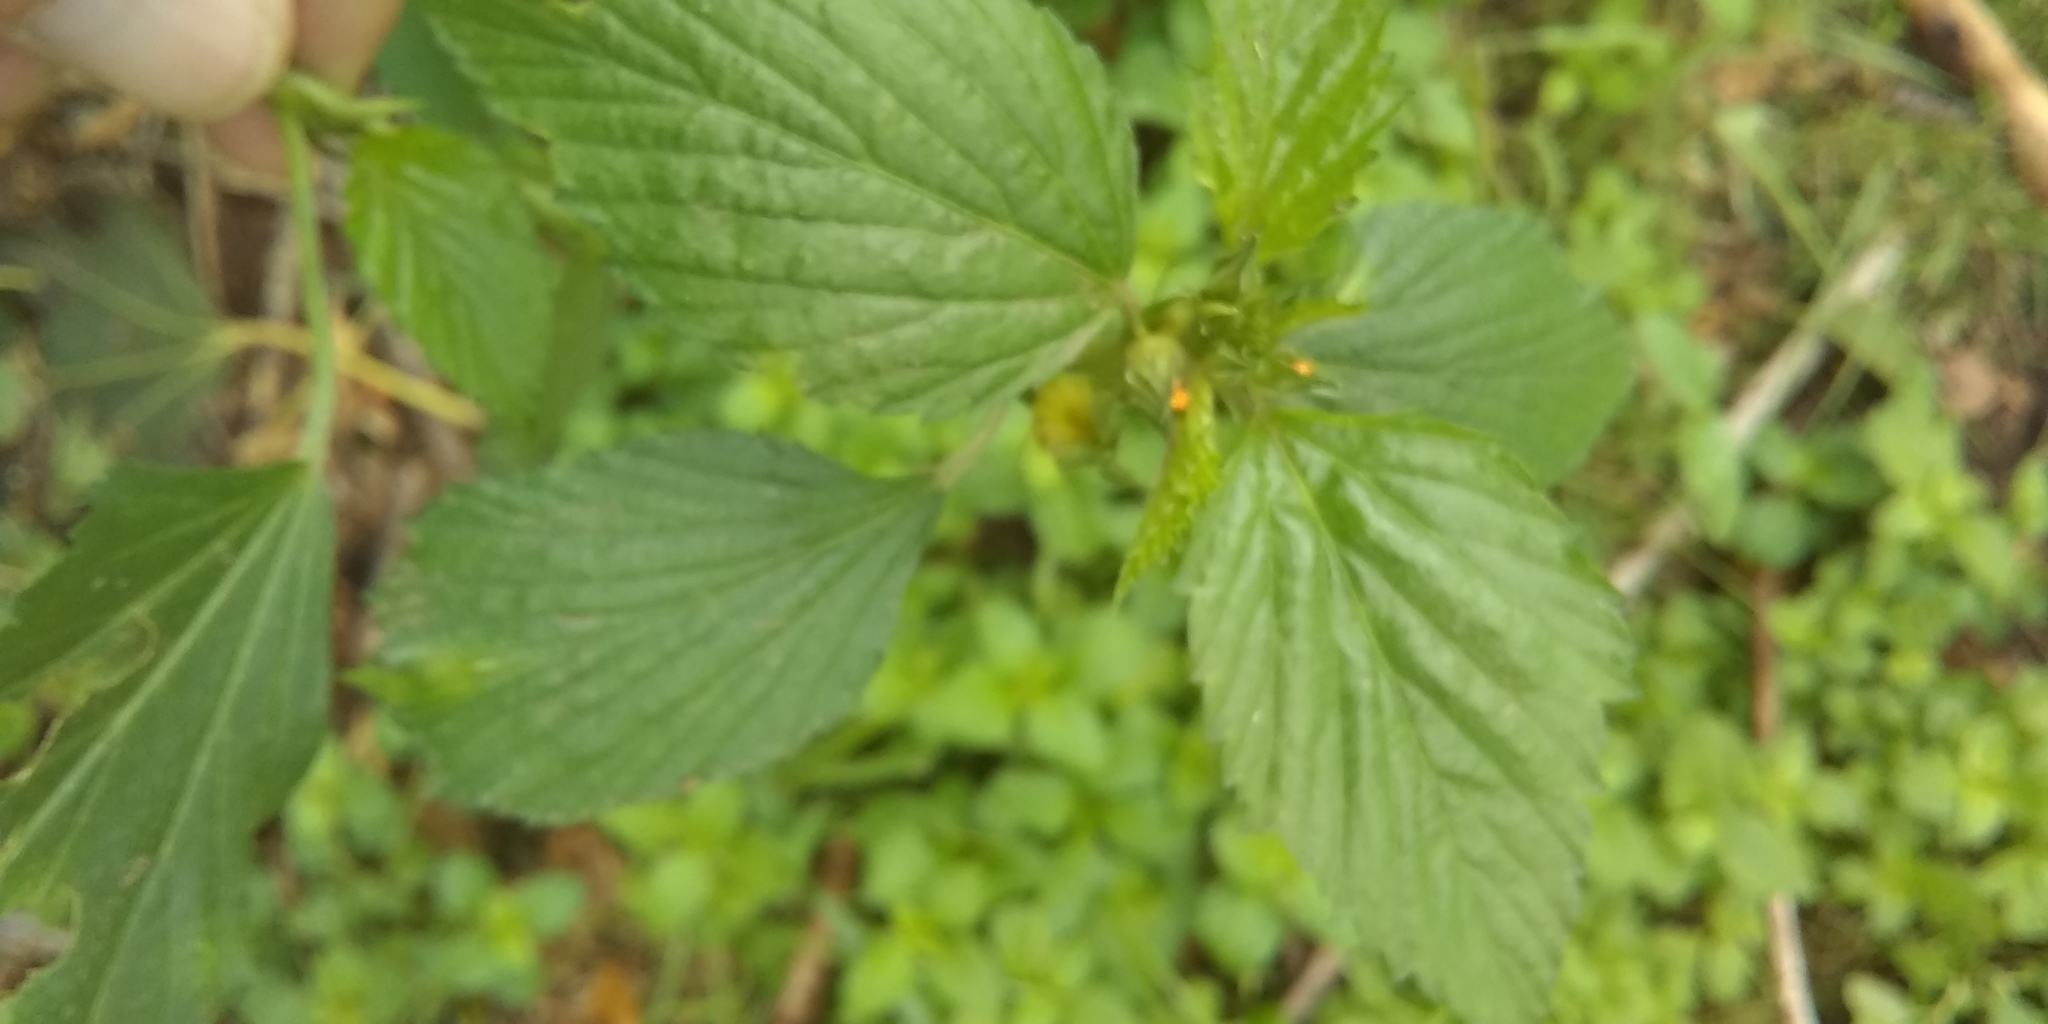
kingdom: Plantae
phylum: Tracheophyta
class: Magnoliopsida
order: Malvales
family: Malvaceae
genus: Malvastrum
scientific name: Malvastrum coromandelianum
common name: Threelobe false mallow
